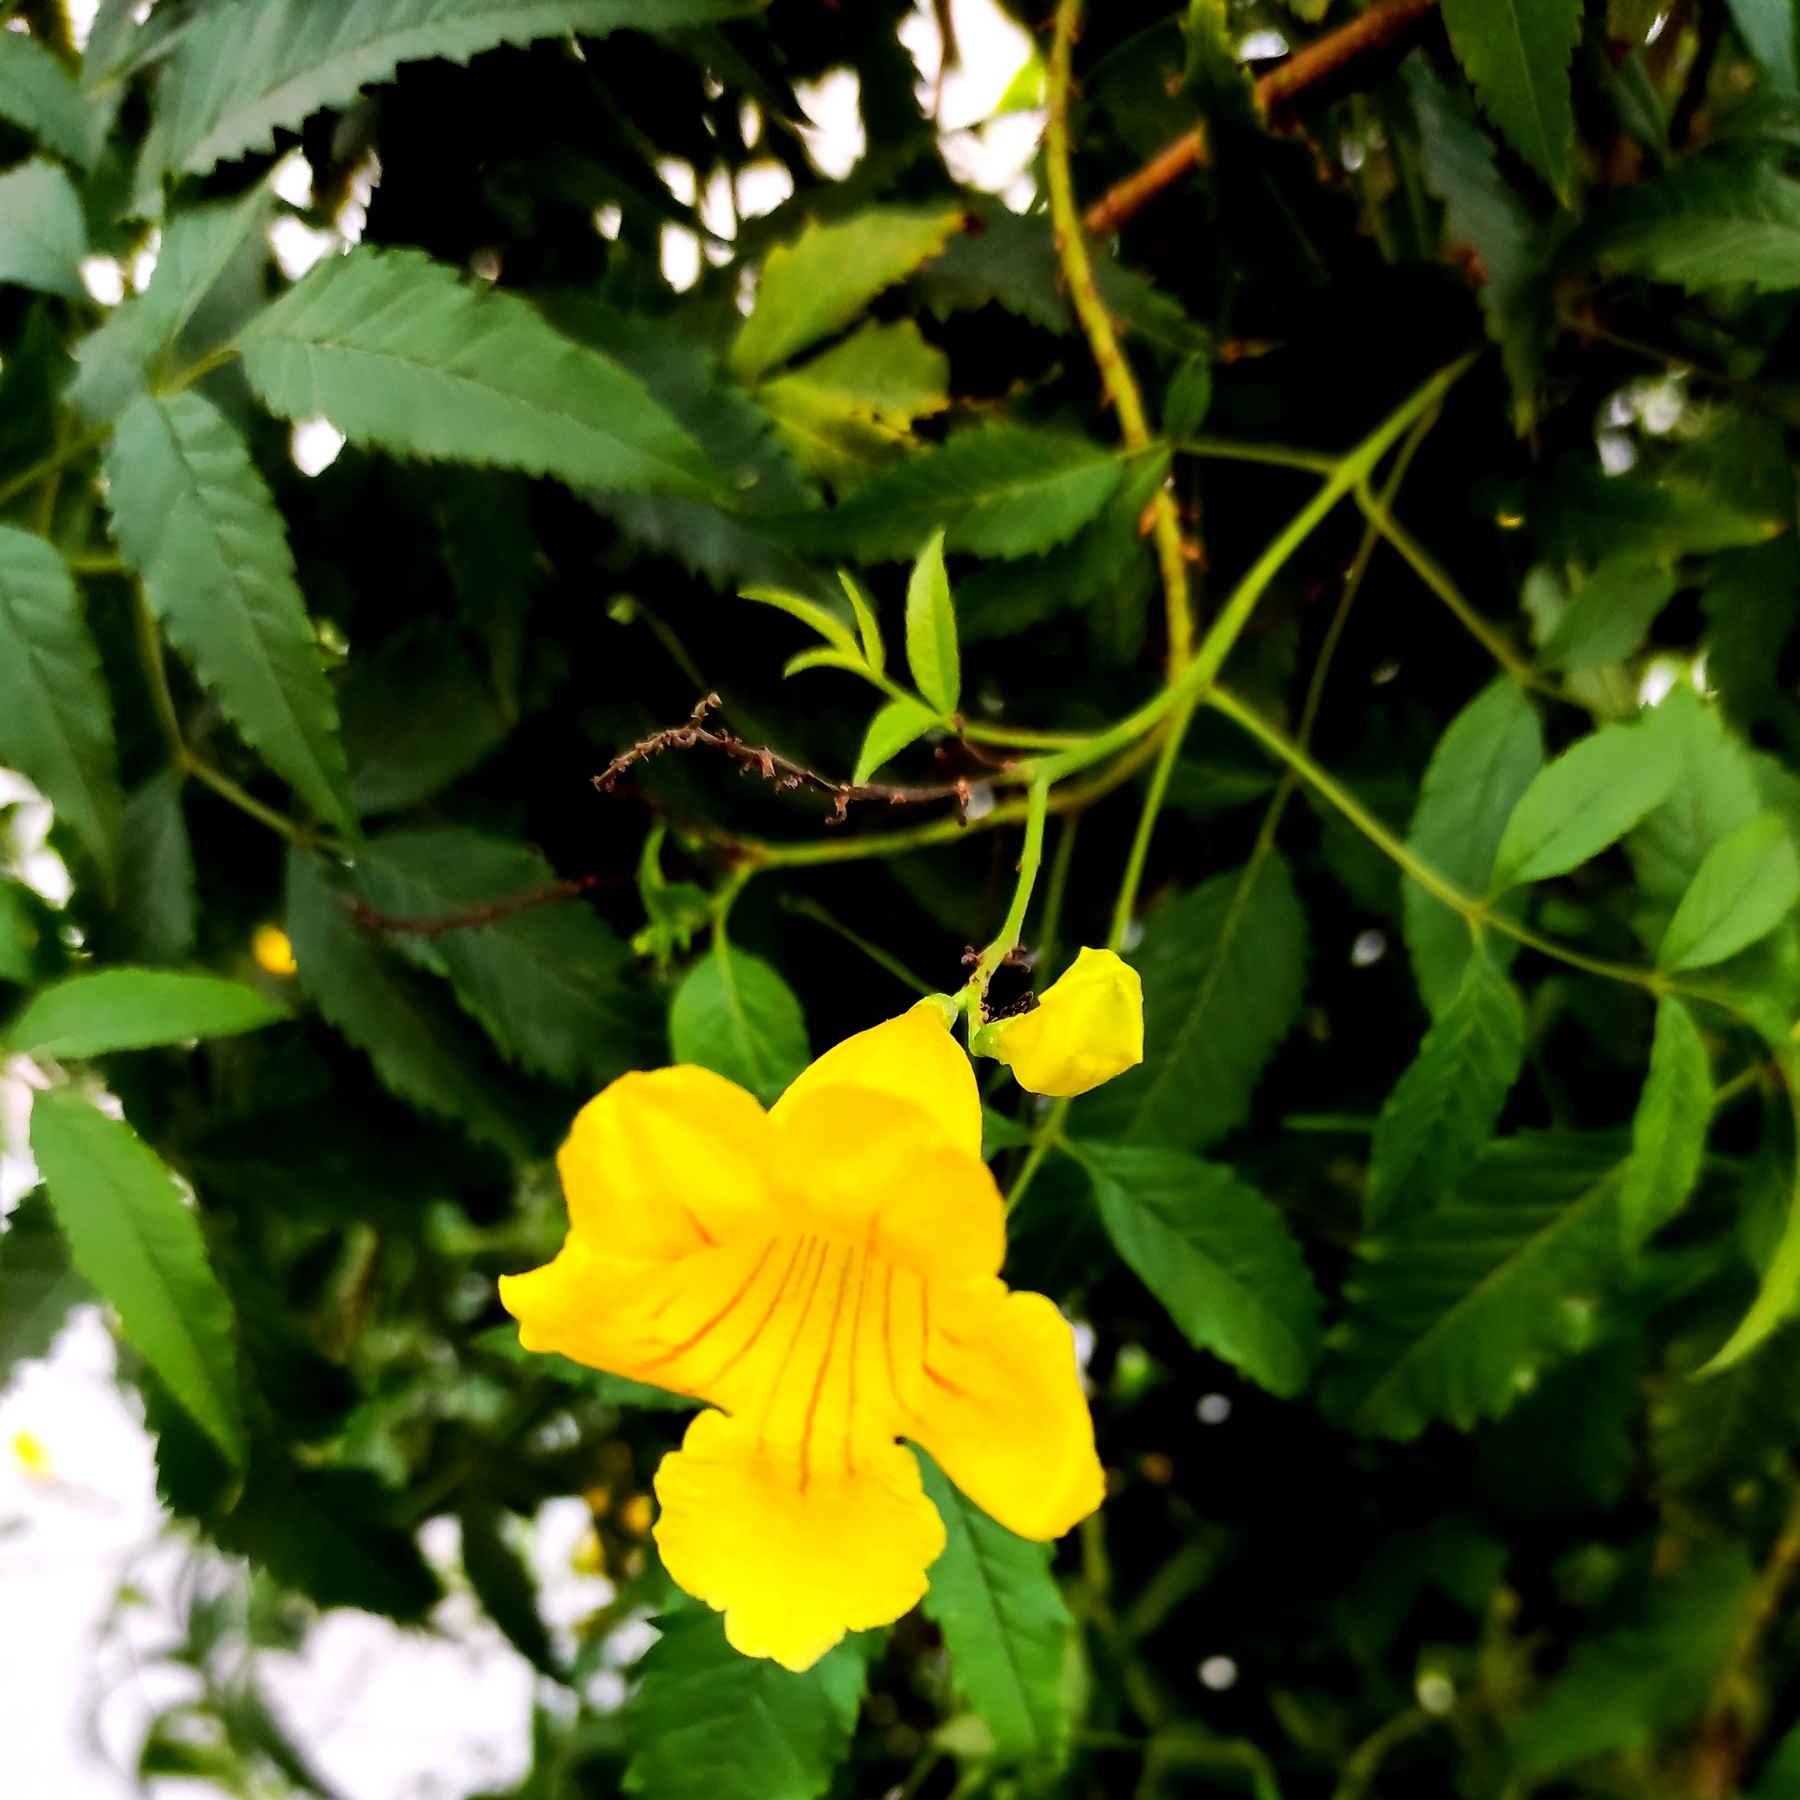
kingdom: Plantae
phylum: Tracheophyta
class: Magnoliopsida
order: Lamiales
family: Bignoniaceae
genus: Tecoma
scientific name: Tecoma stans
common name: Yellow trumpetbush
